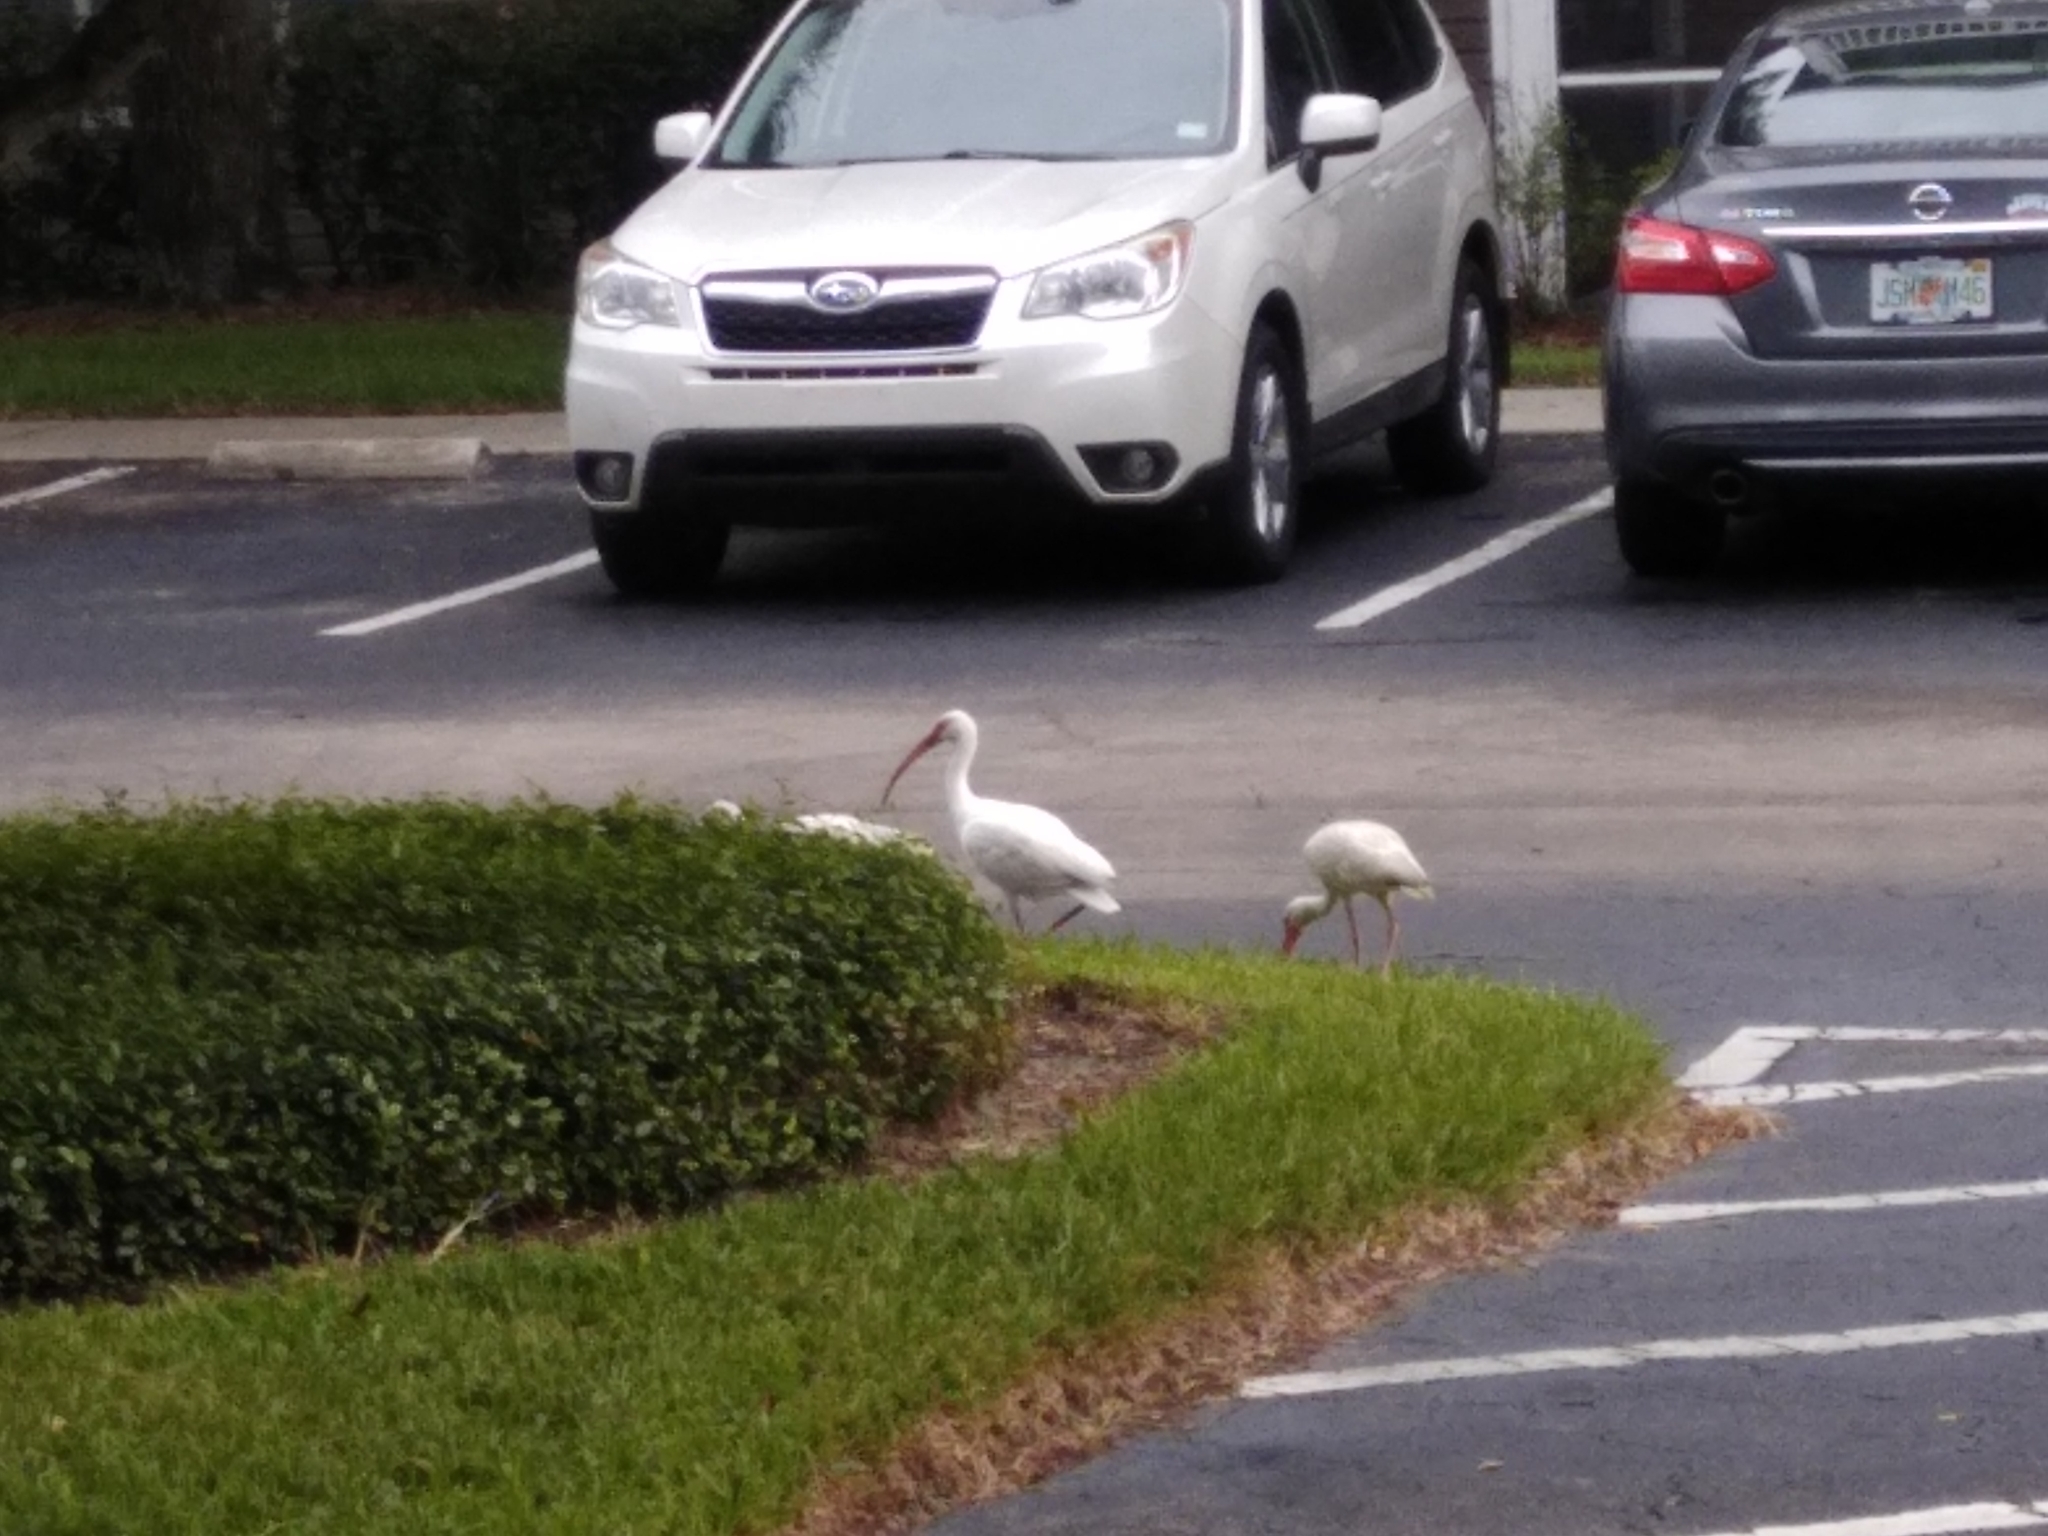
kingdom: Animalia
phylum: Chordata
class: Aves
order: Pelecaniformes
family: Threskiornithidae
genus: Eudocimus
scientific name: Eudocimus albus
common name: White ibis
